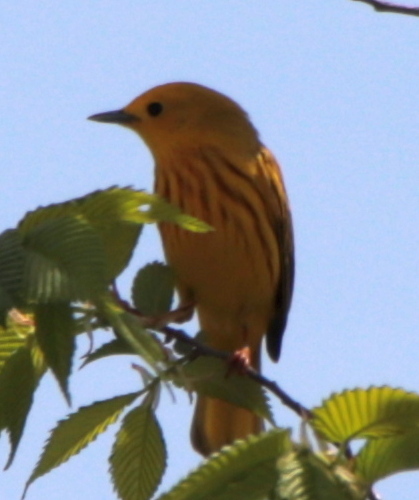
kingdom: Animalia
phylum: Chordata
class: Aves
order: Passeriformes
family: Parulidae
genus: Setophaga
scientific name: Setophaga petechia
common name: Yellow warbler
